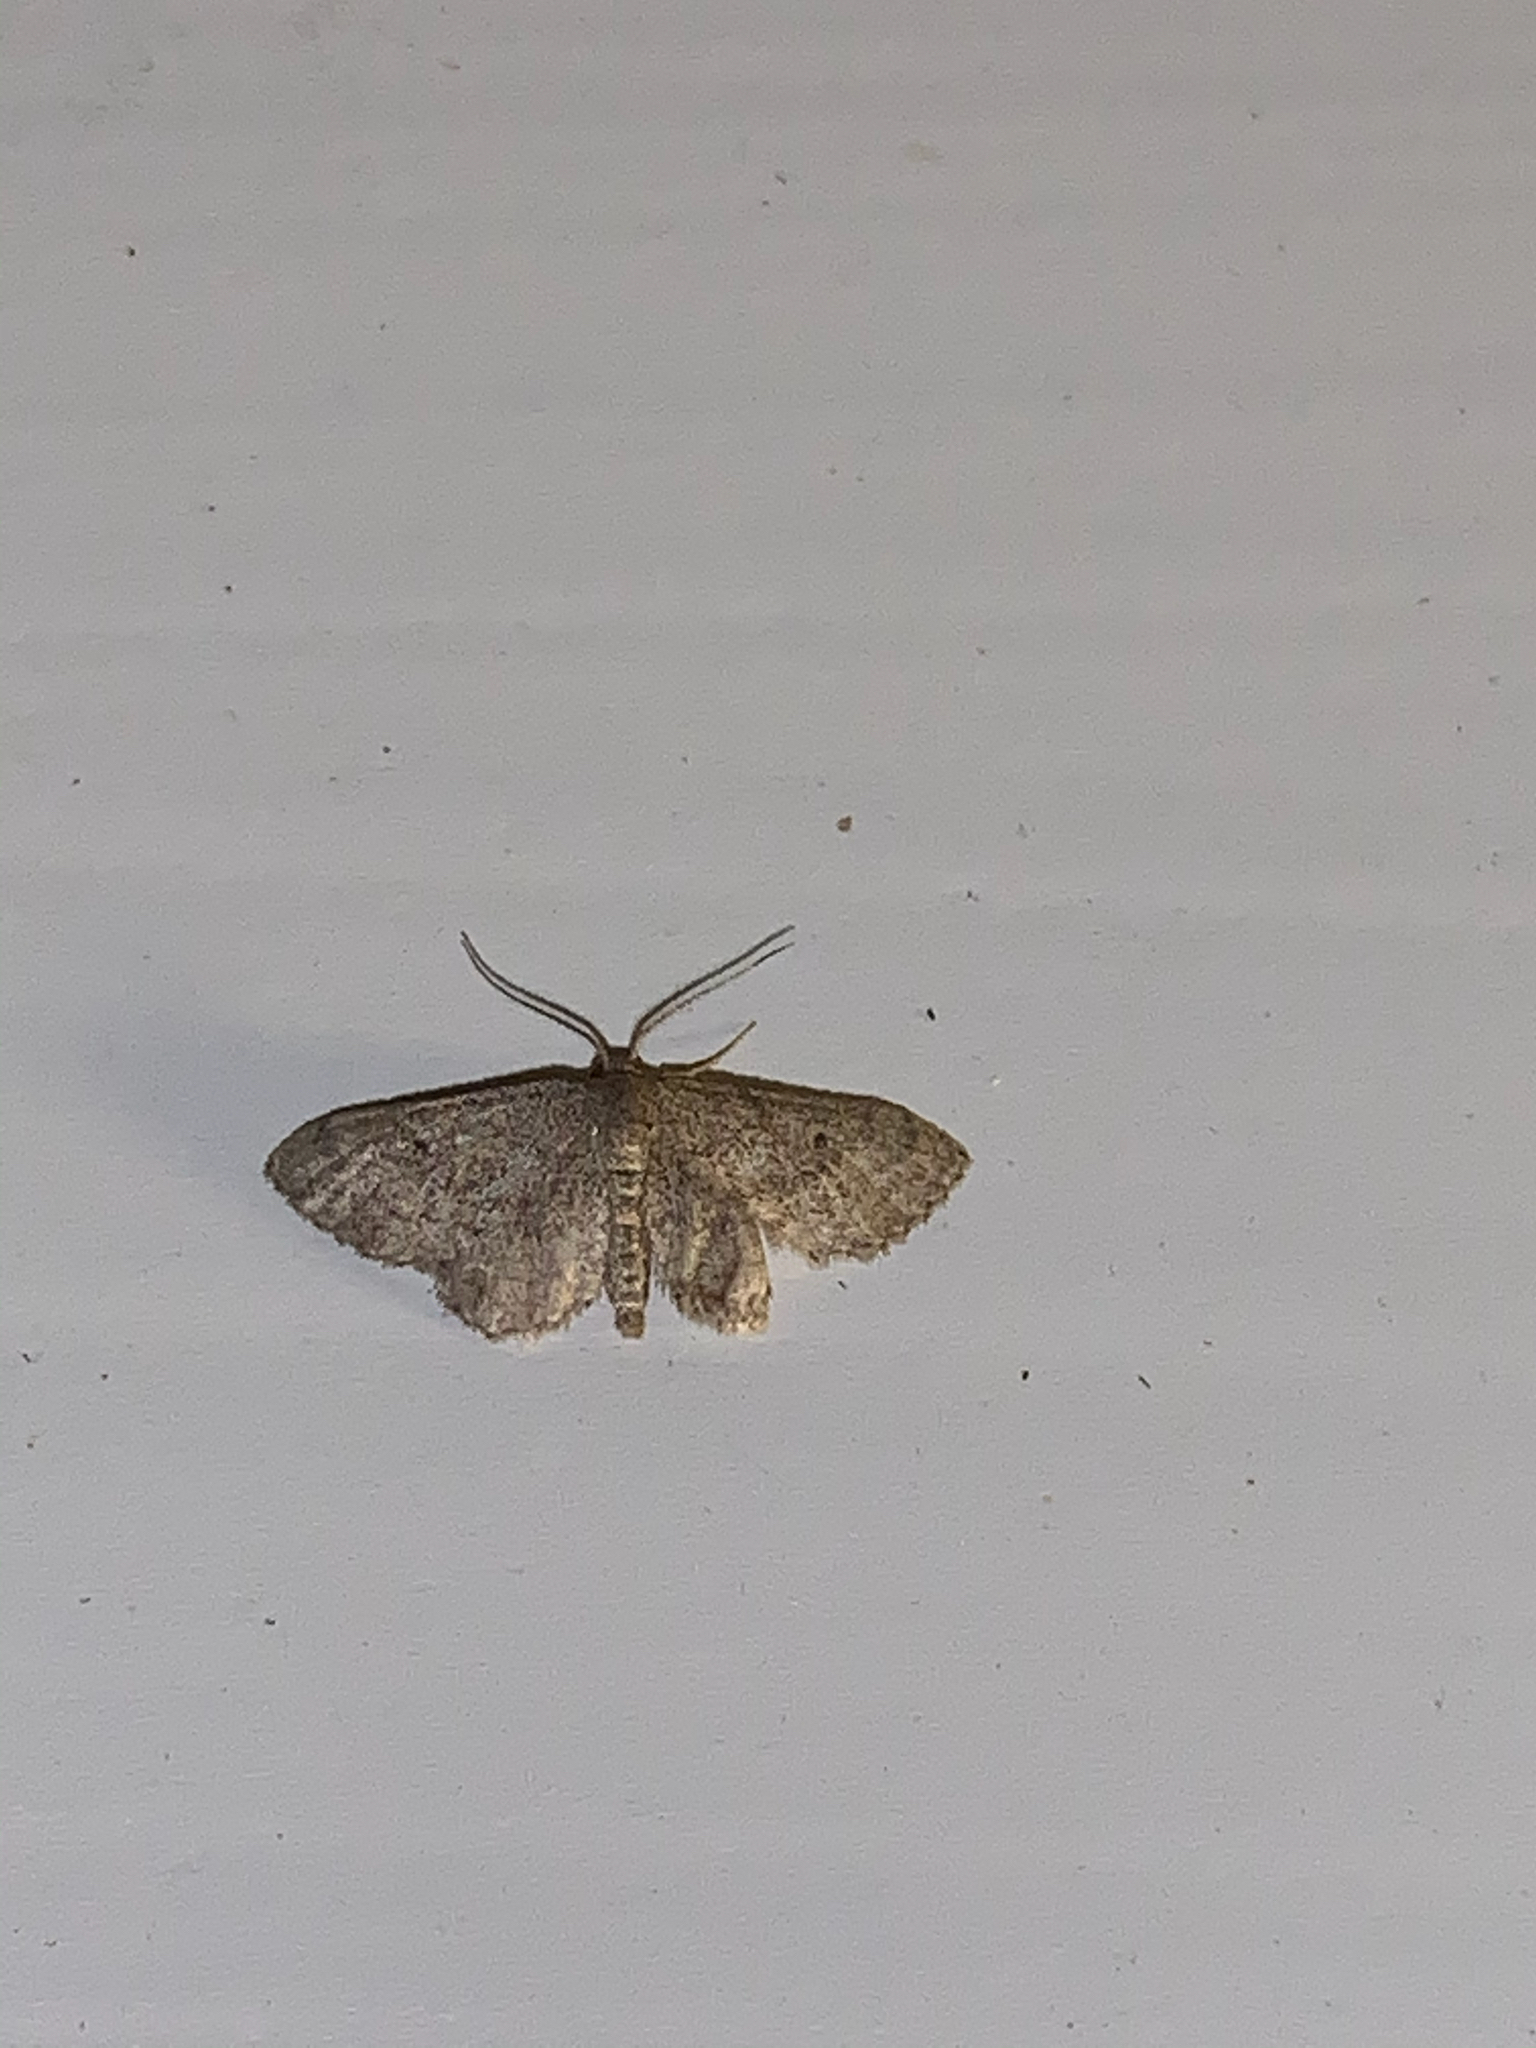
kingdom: Animalia
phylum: Arthropoda
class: Insecta
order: Lepidoptera
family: Geometridae
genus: Lobocleta
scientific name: Lobocleta ossularia
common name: Drab brown wave
